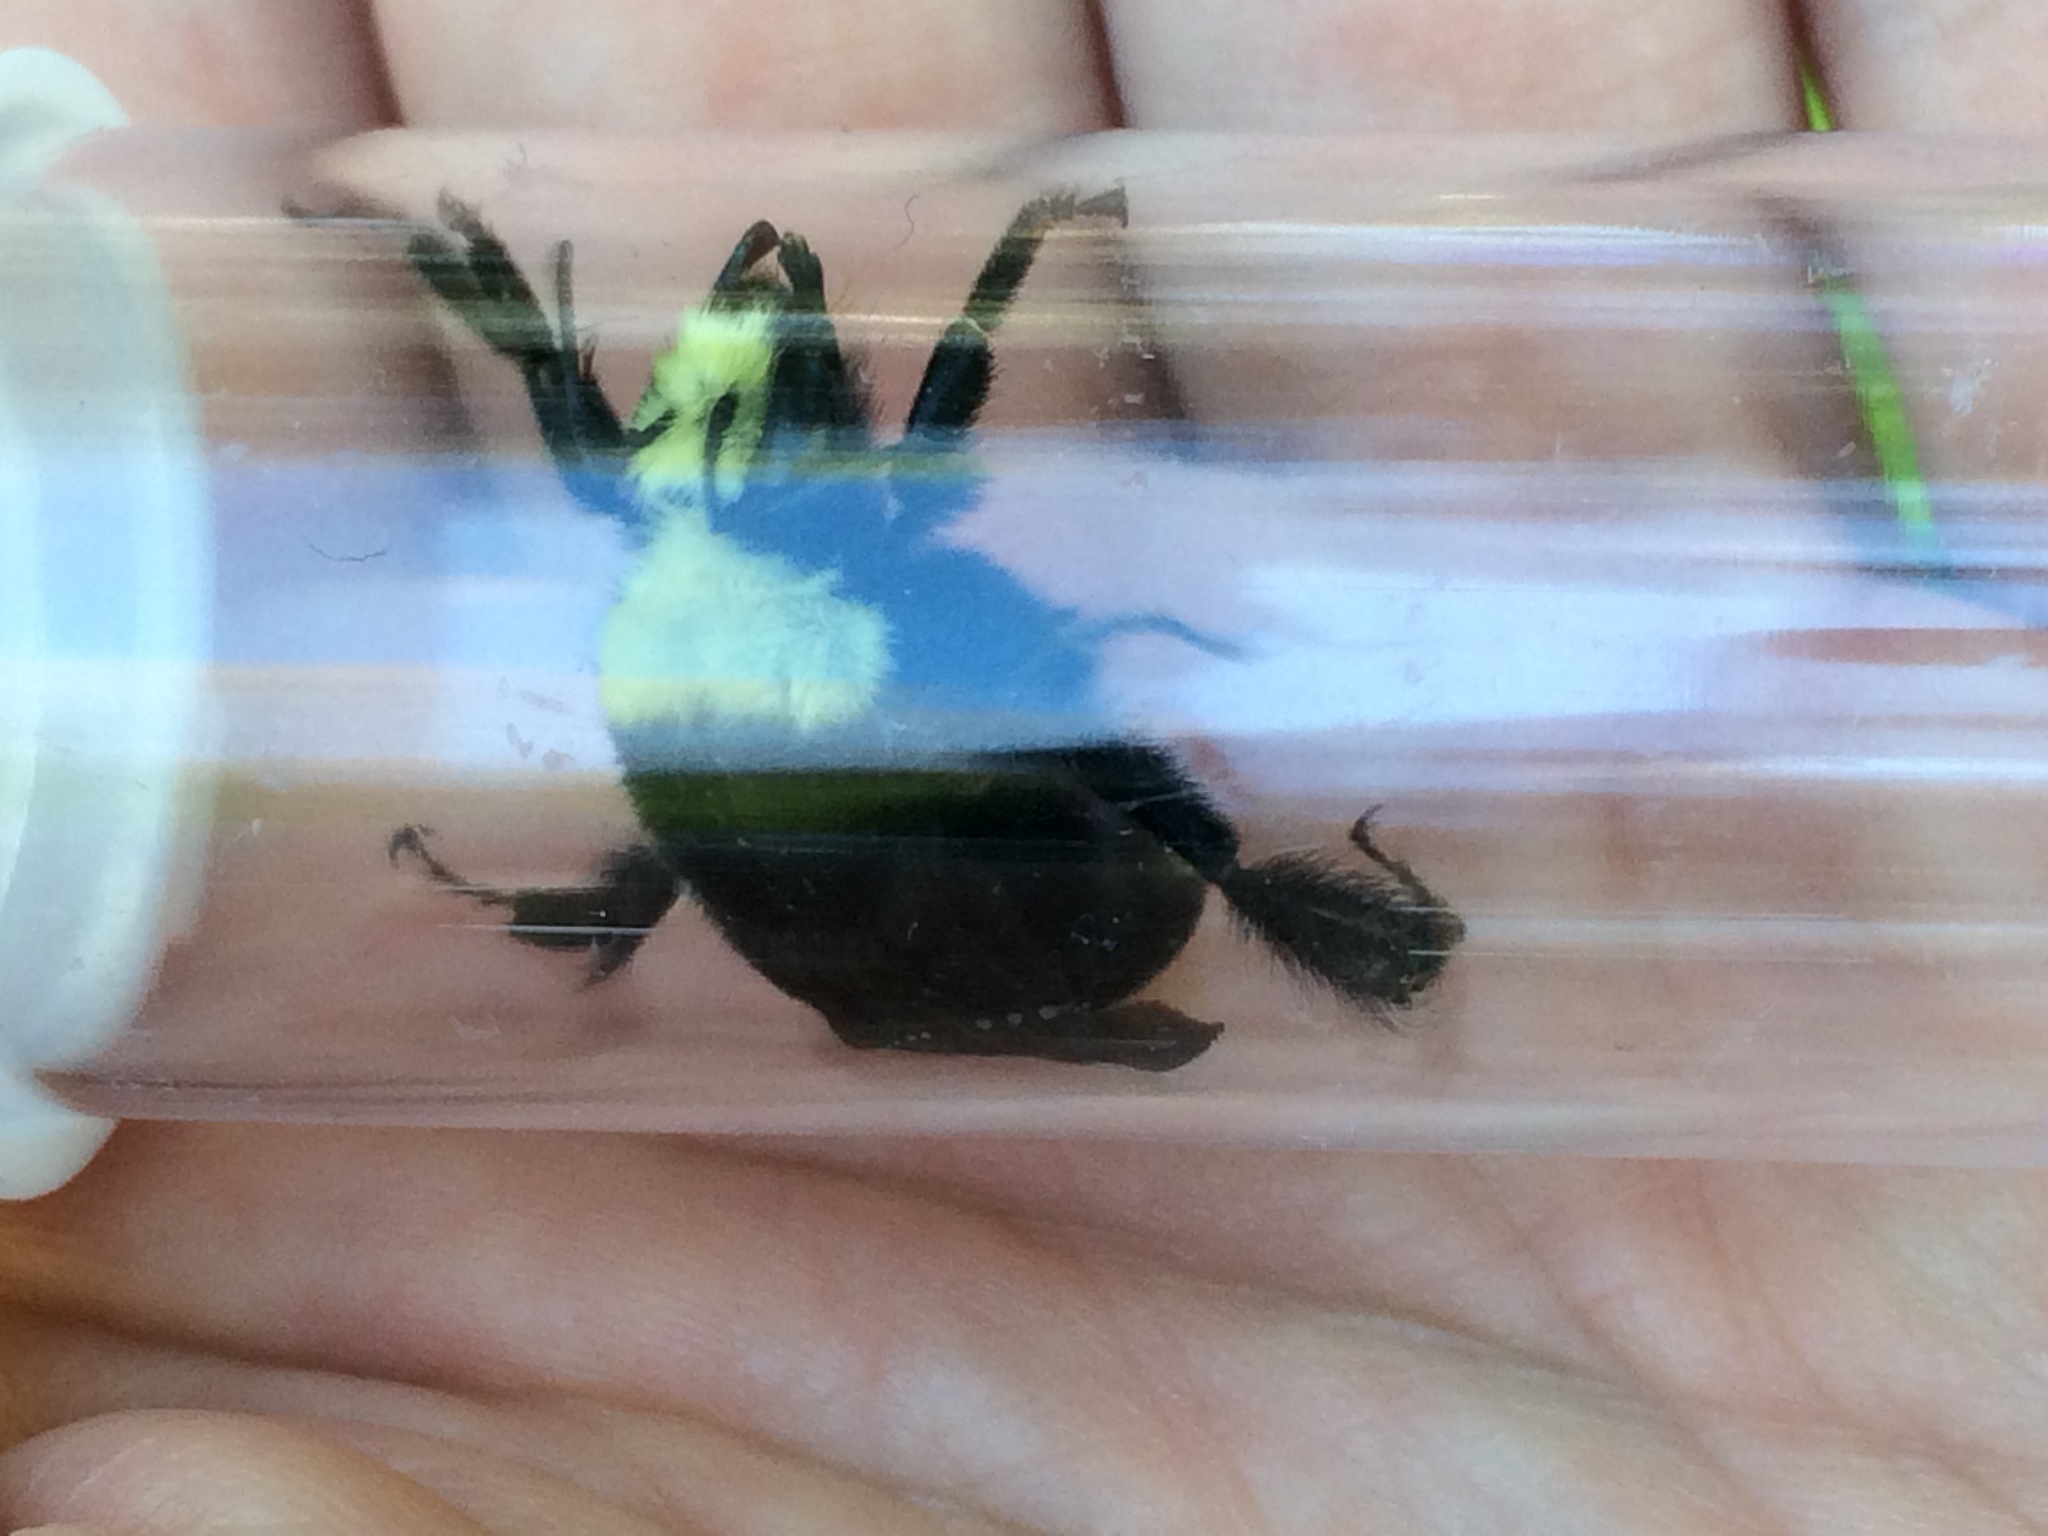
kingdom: Animalia
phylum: Arthropoda
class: Insecta
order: Hymenoptera
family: Apidae
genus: Bombus
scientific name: Bombus vosnesenskii
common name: Vosnesensky bumble bee
